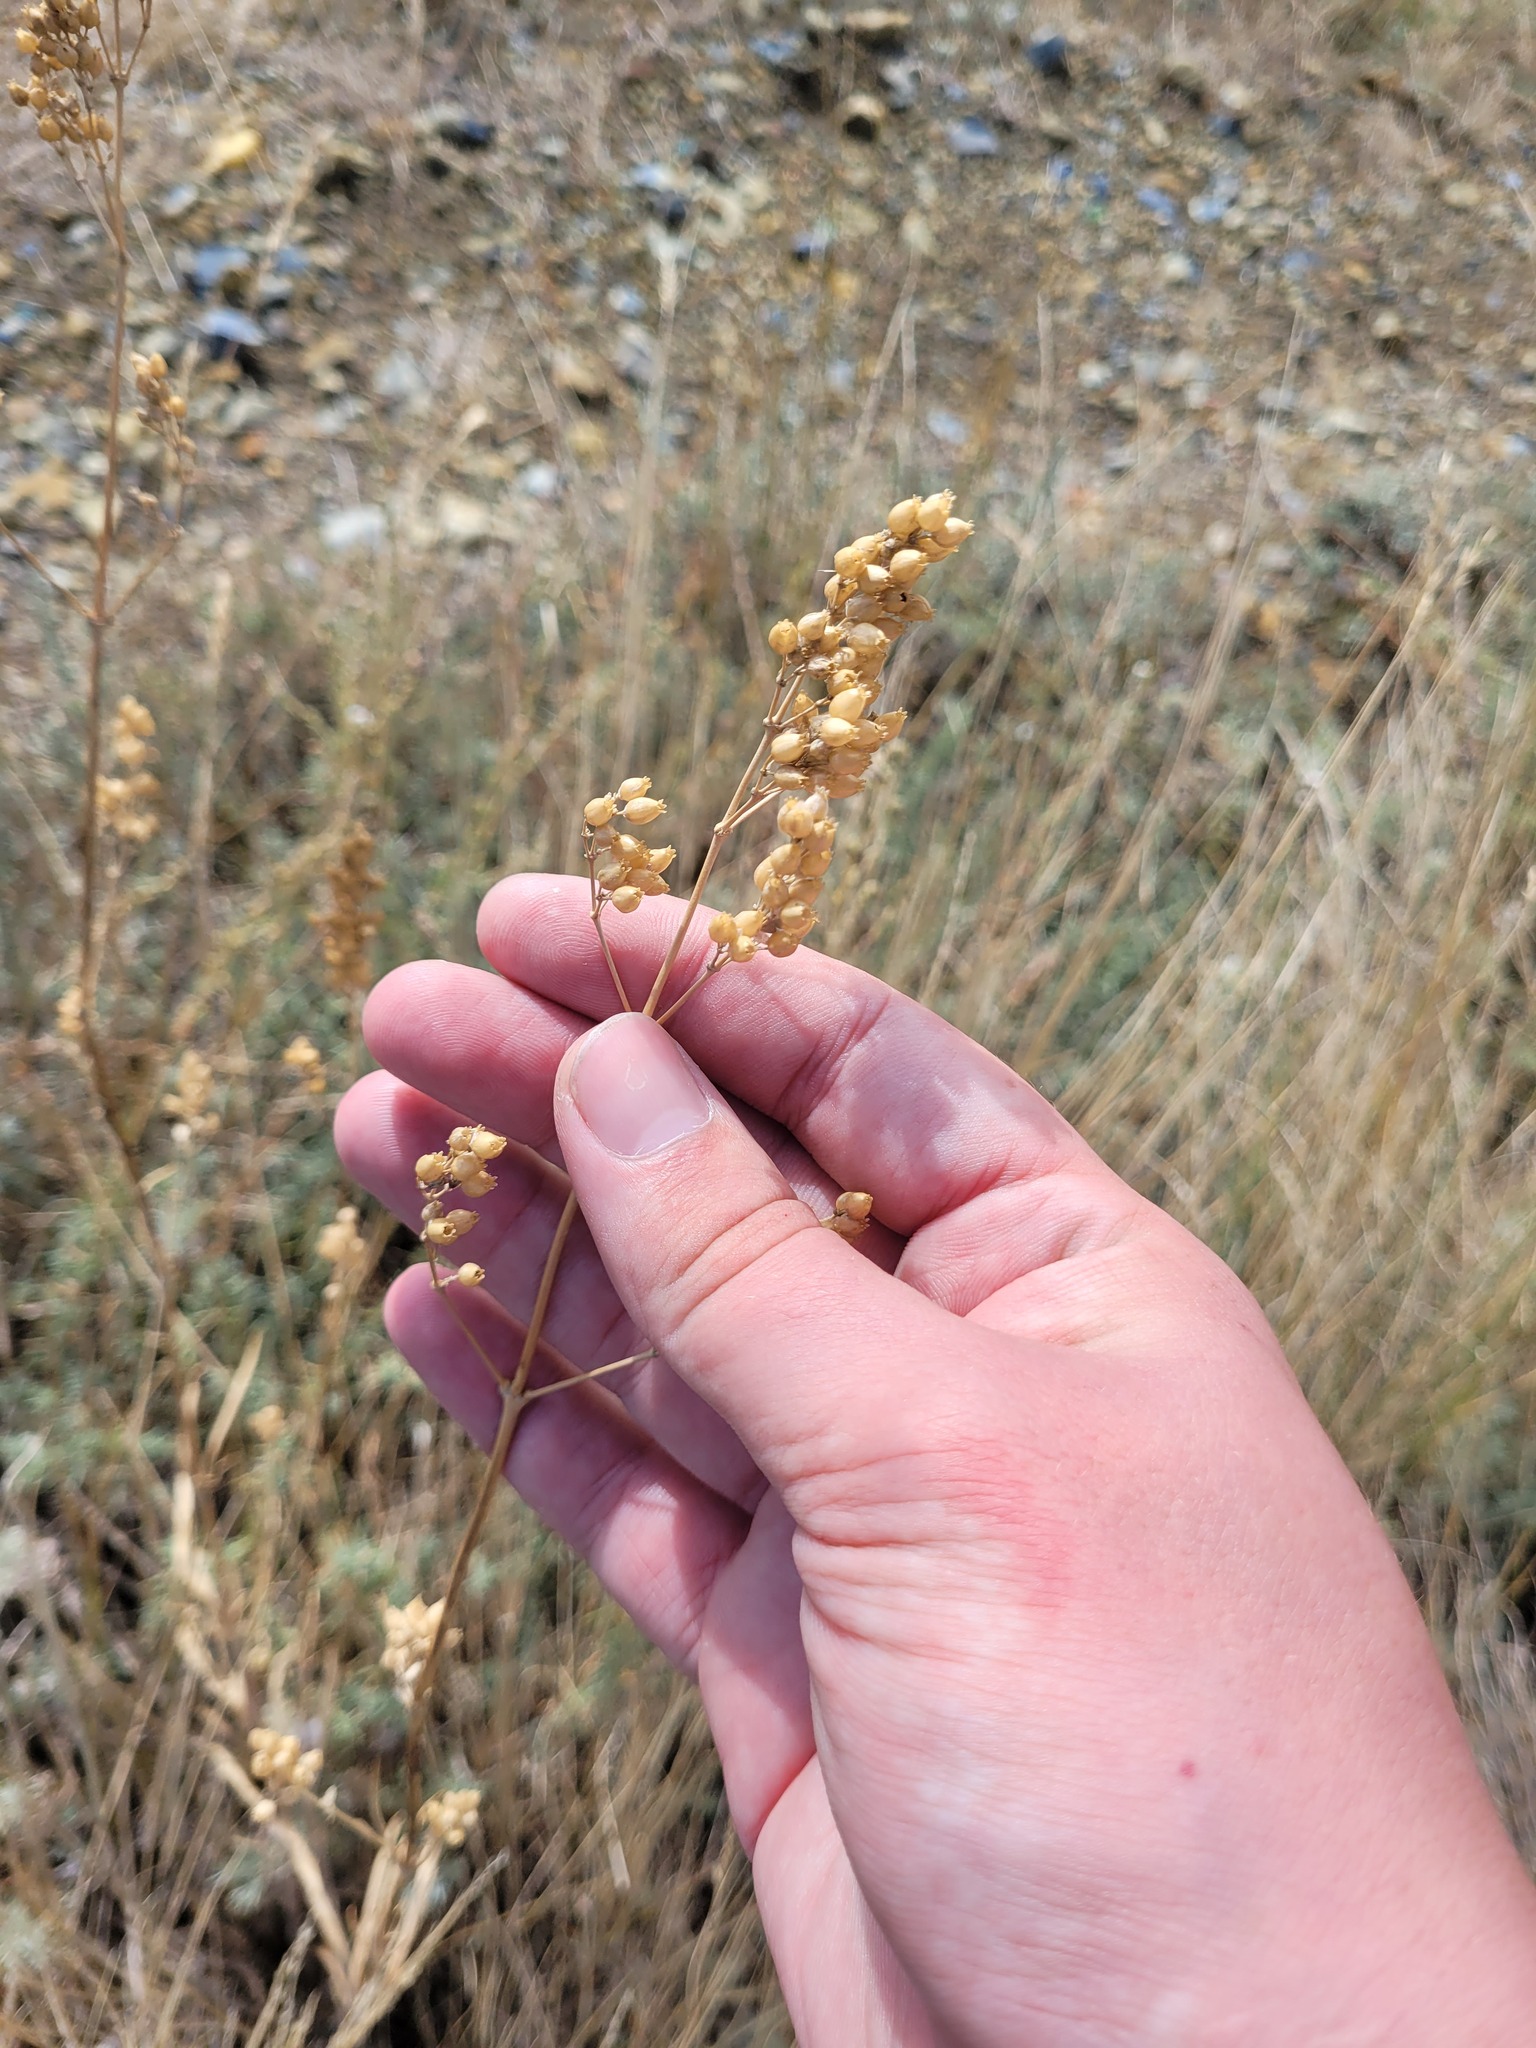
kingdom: Plantae
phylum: Tracheophyta
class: Magnoliopsida
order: Caryophyllales
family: Caryophyllaceae
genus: Silene
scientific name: Silene wolgensis
